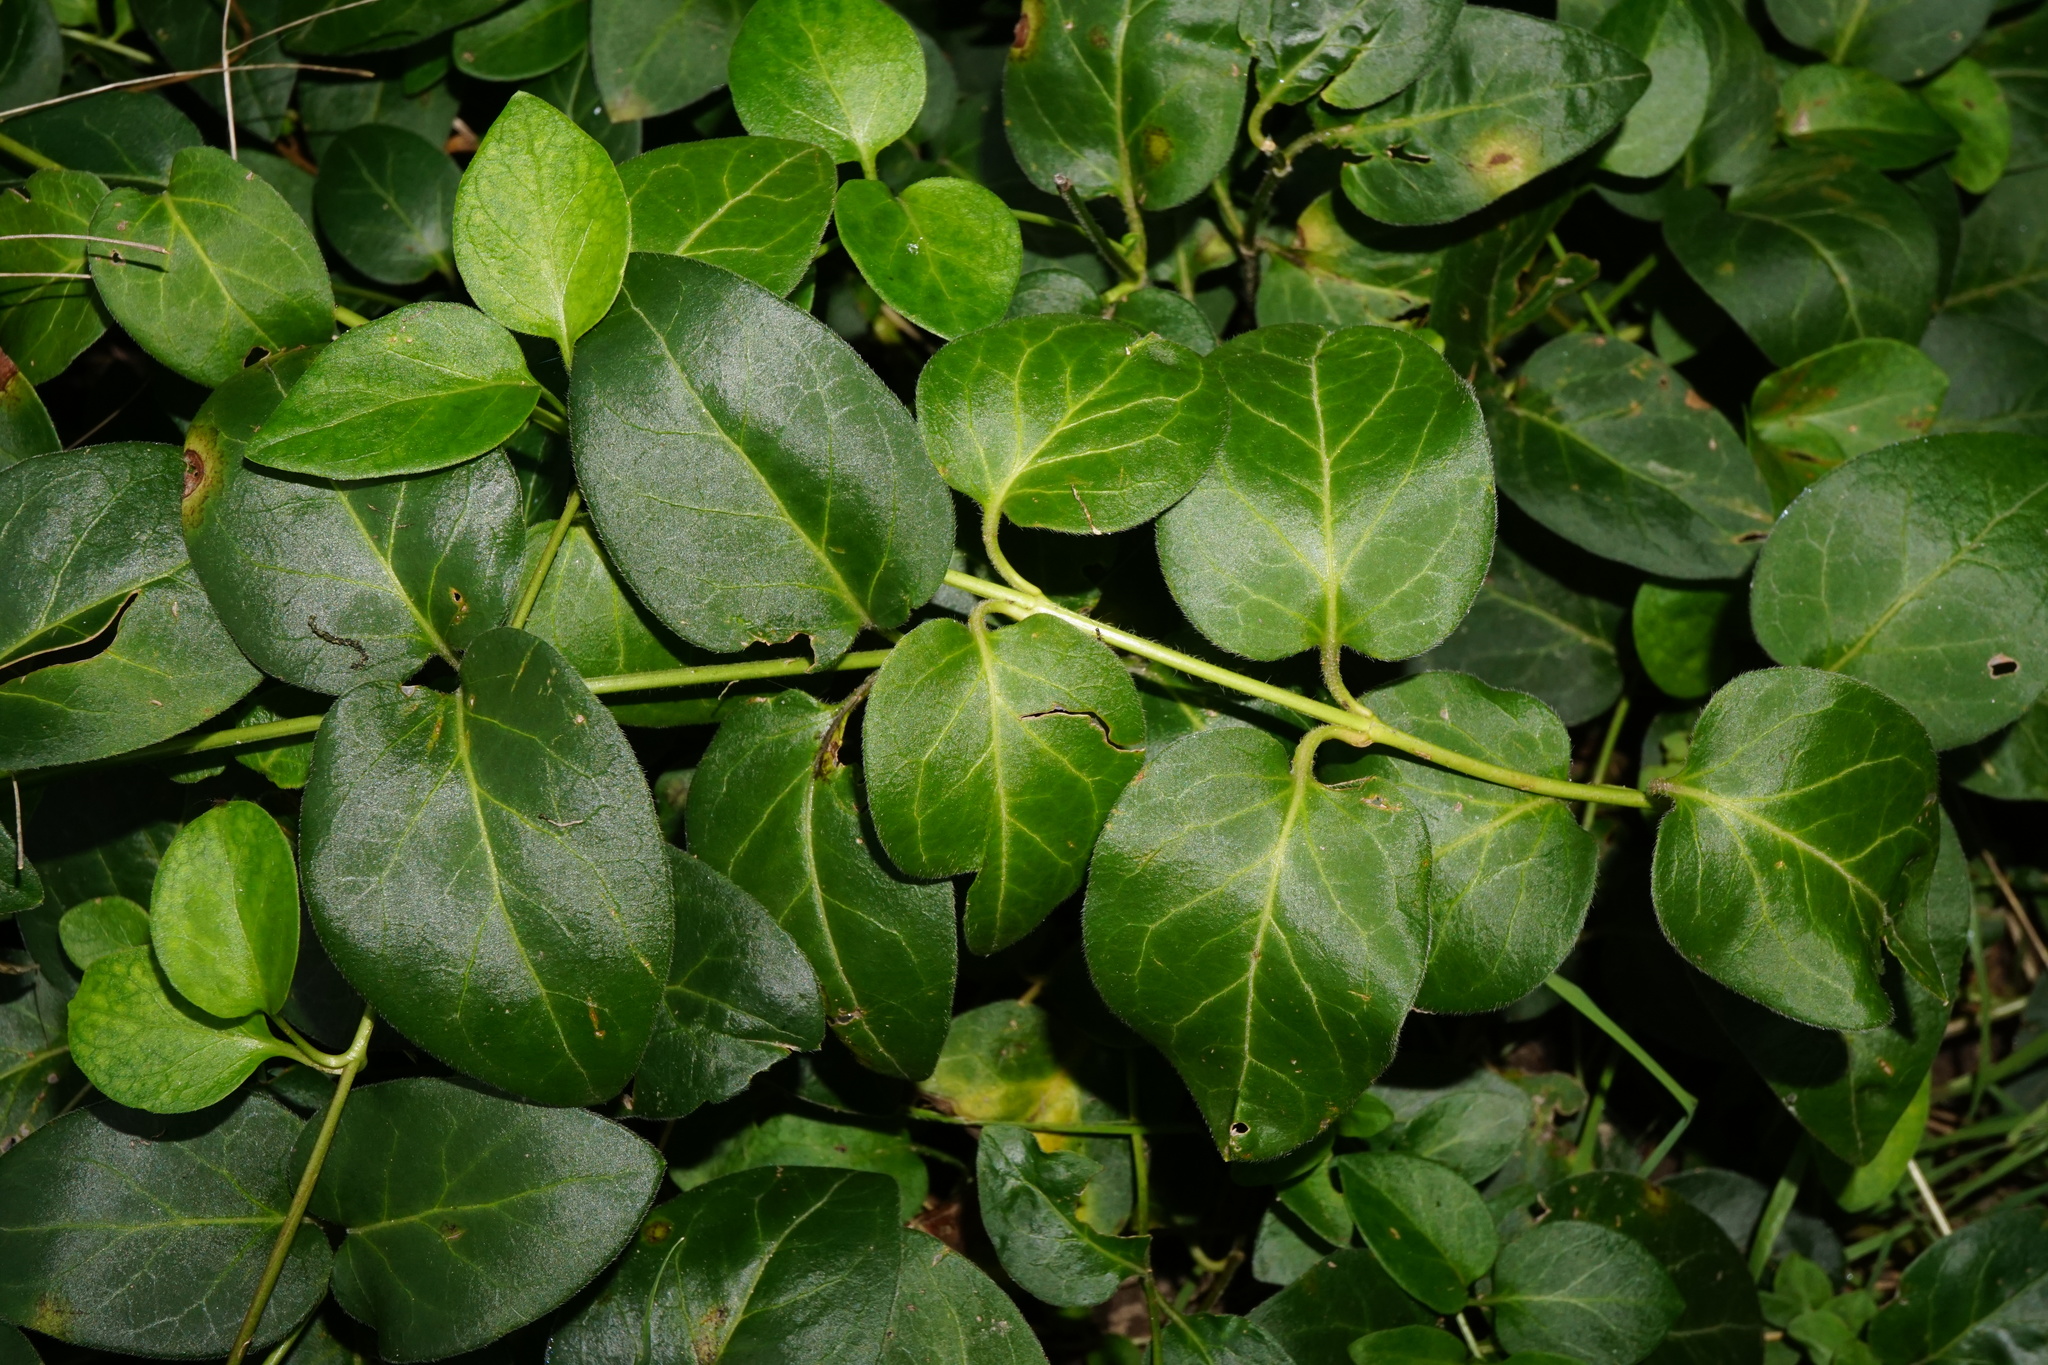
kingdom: Plantae
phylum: Tracheophyta
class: Magnoliopsida
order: Gentianales
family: Apocynaceae
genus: Vinca
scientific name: Vinca major
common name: Greater periwinkle
